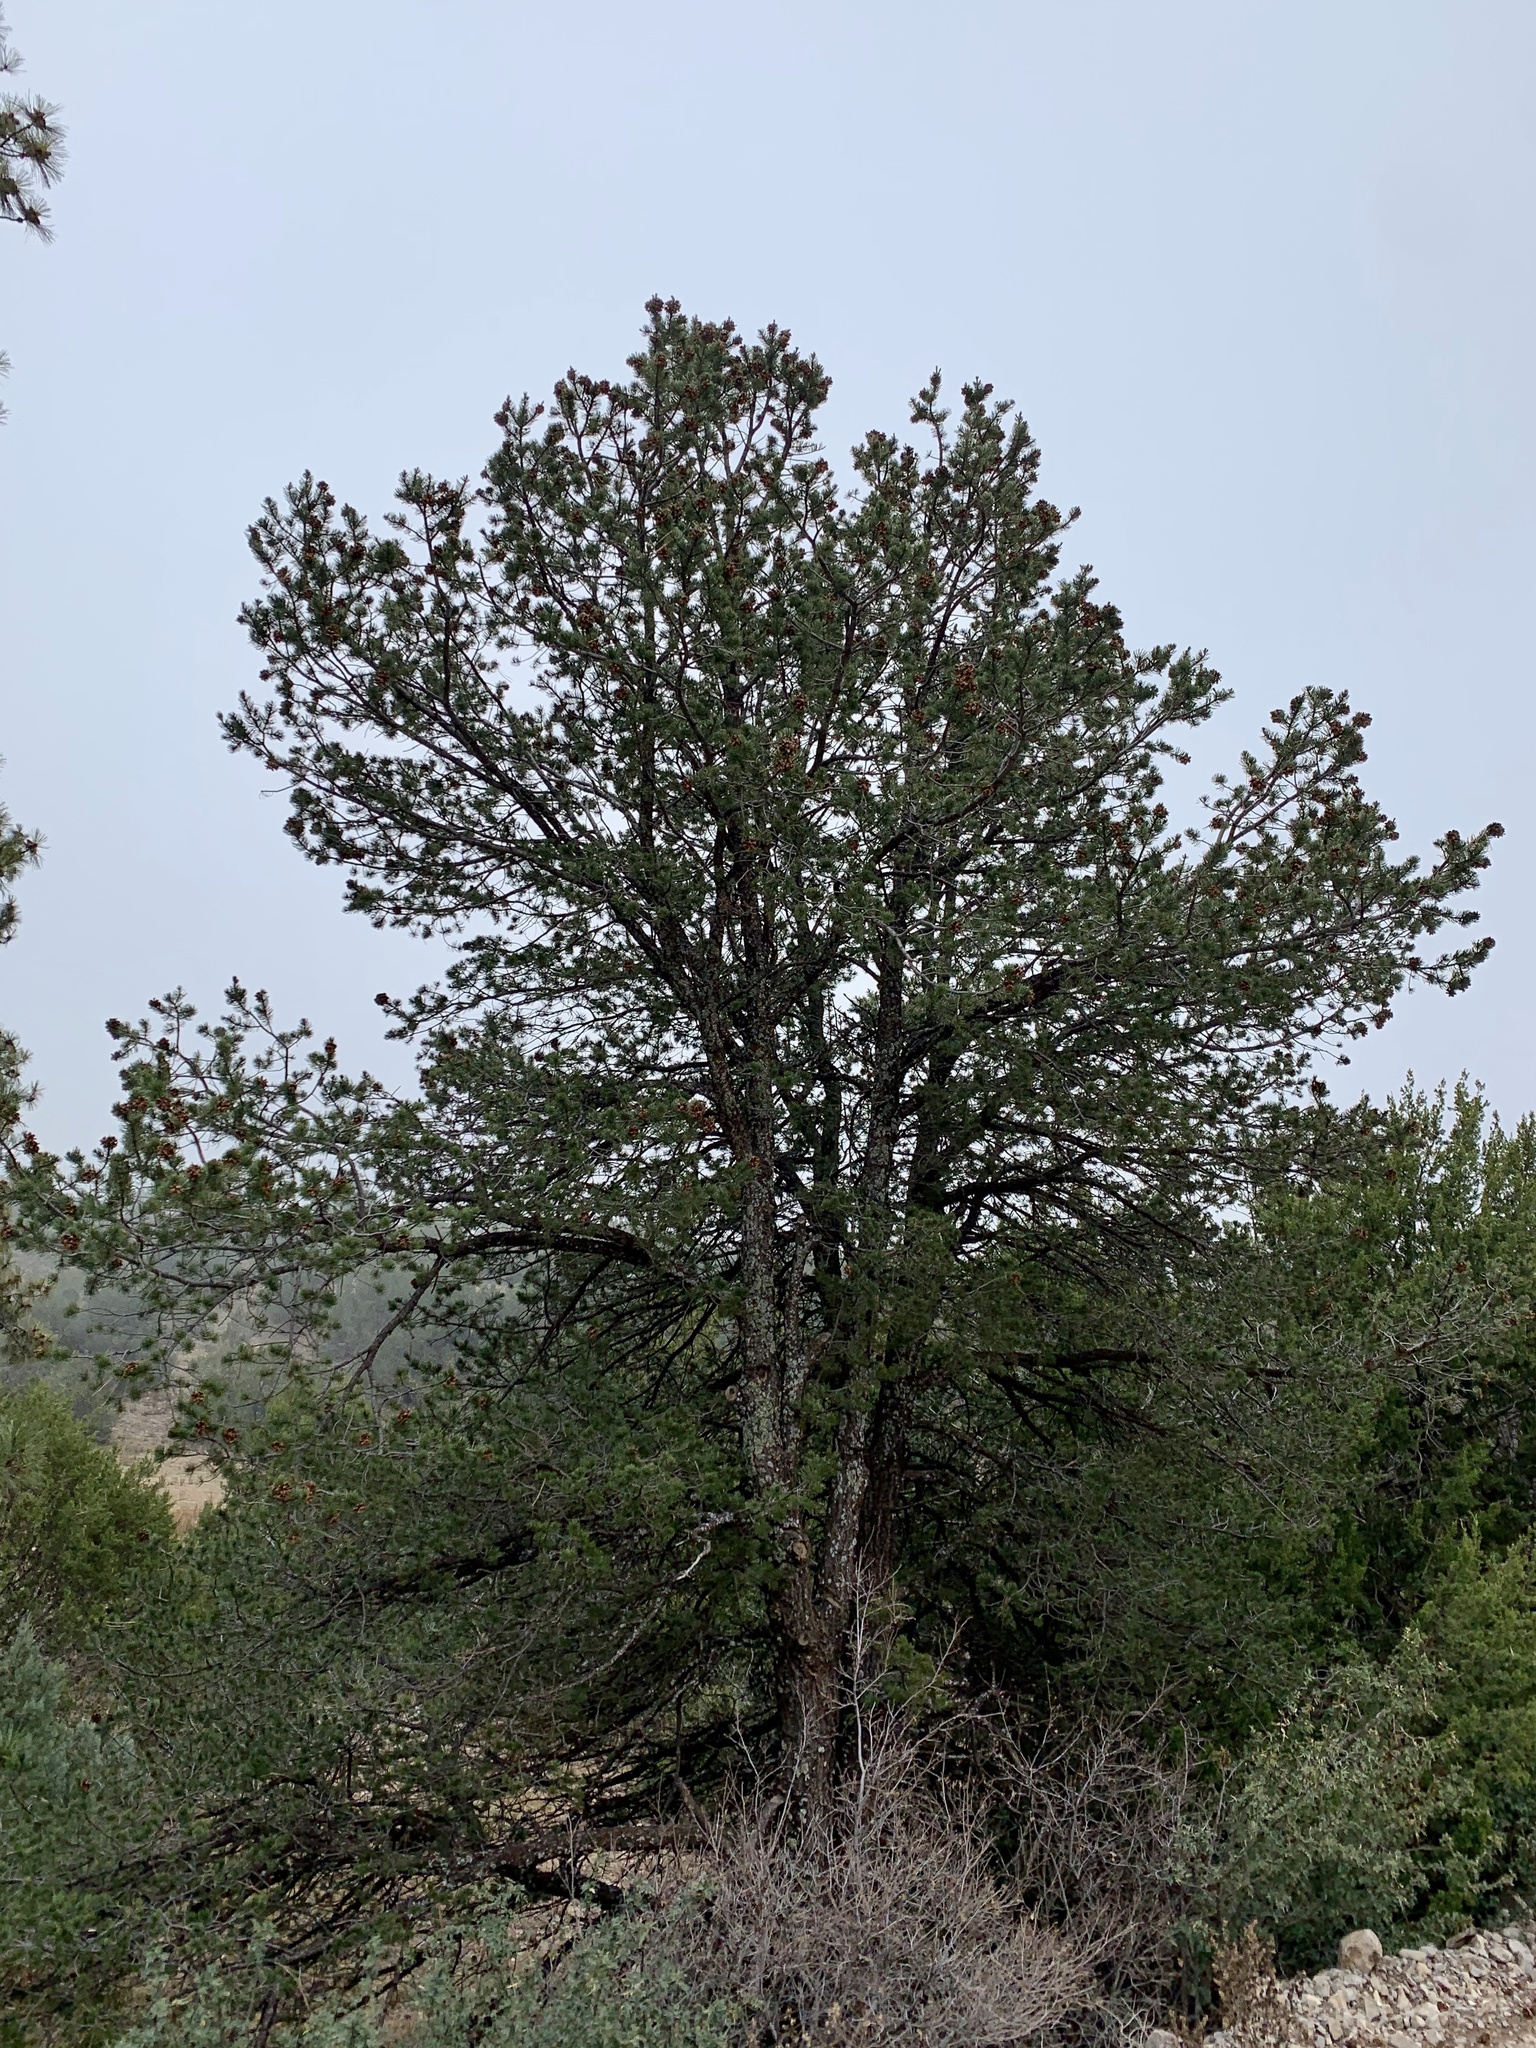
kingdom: Plantae
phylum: Tracheophyta
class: Pinopsida
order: Pinales
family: Pinaceae
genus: Pinus
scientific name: Pinus edulis
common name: Colorado pinyon
